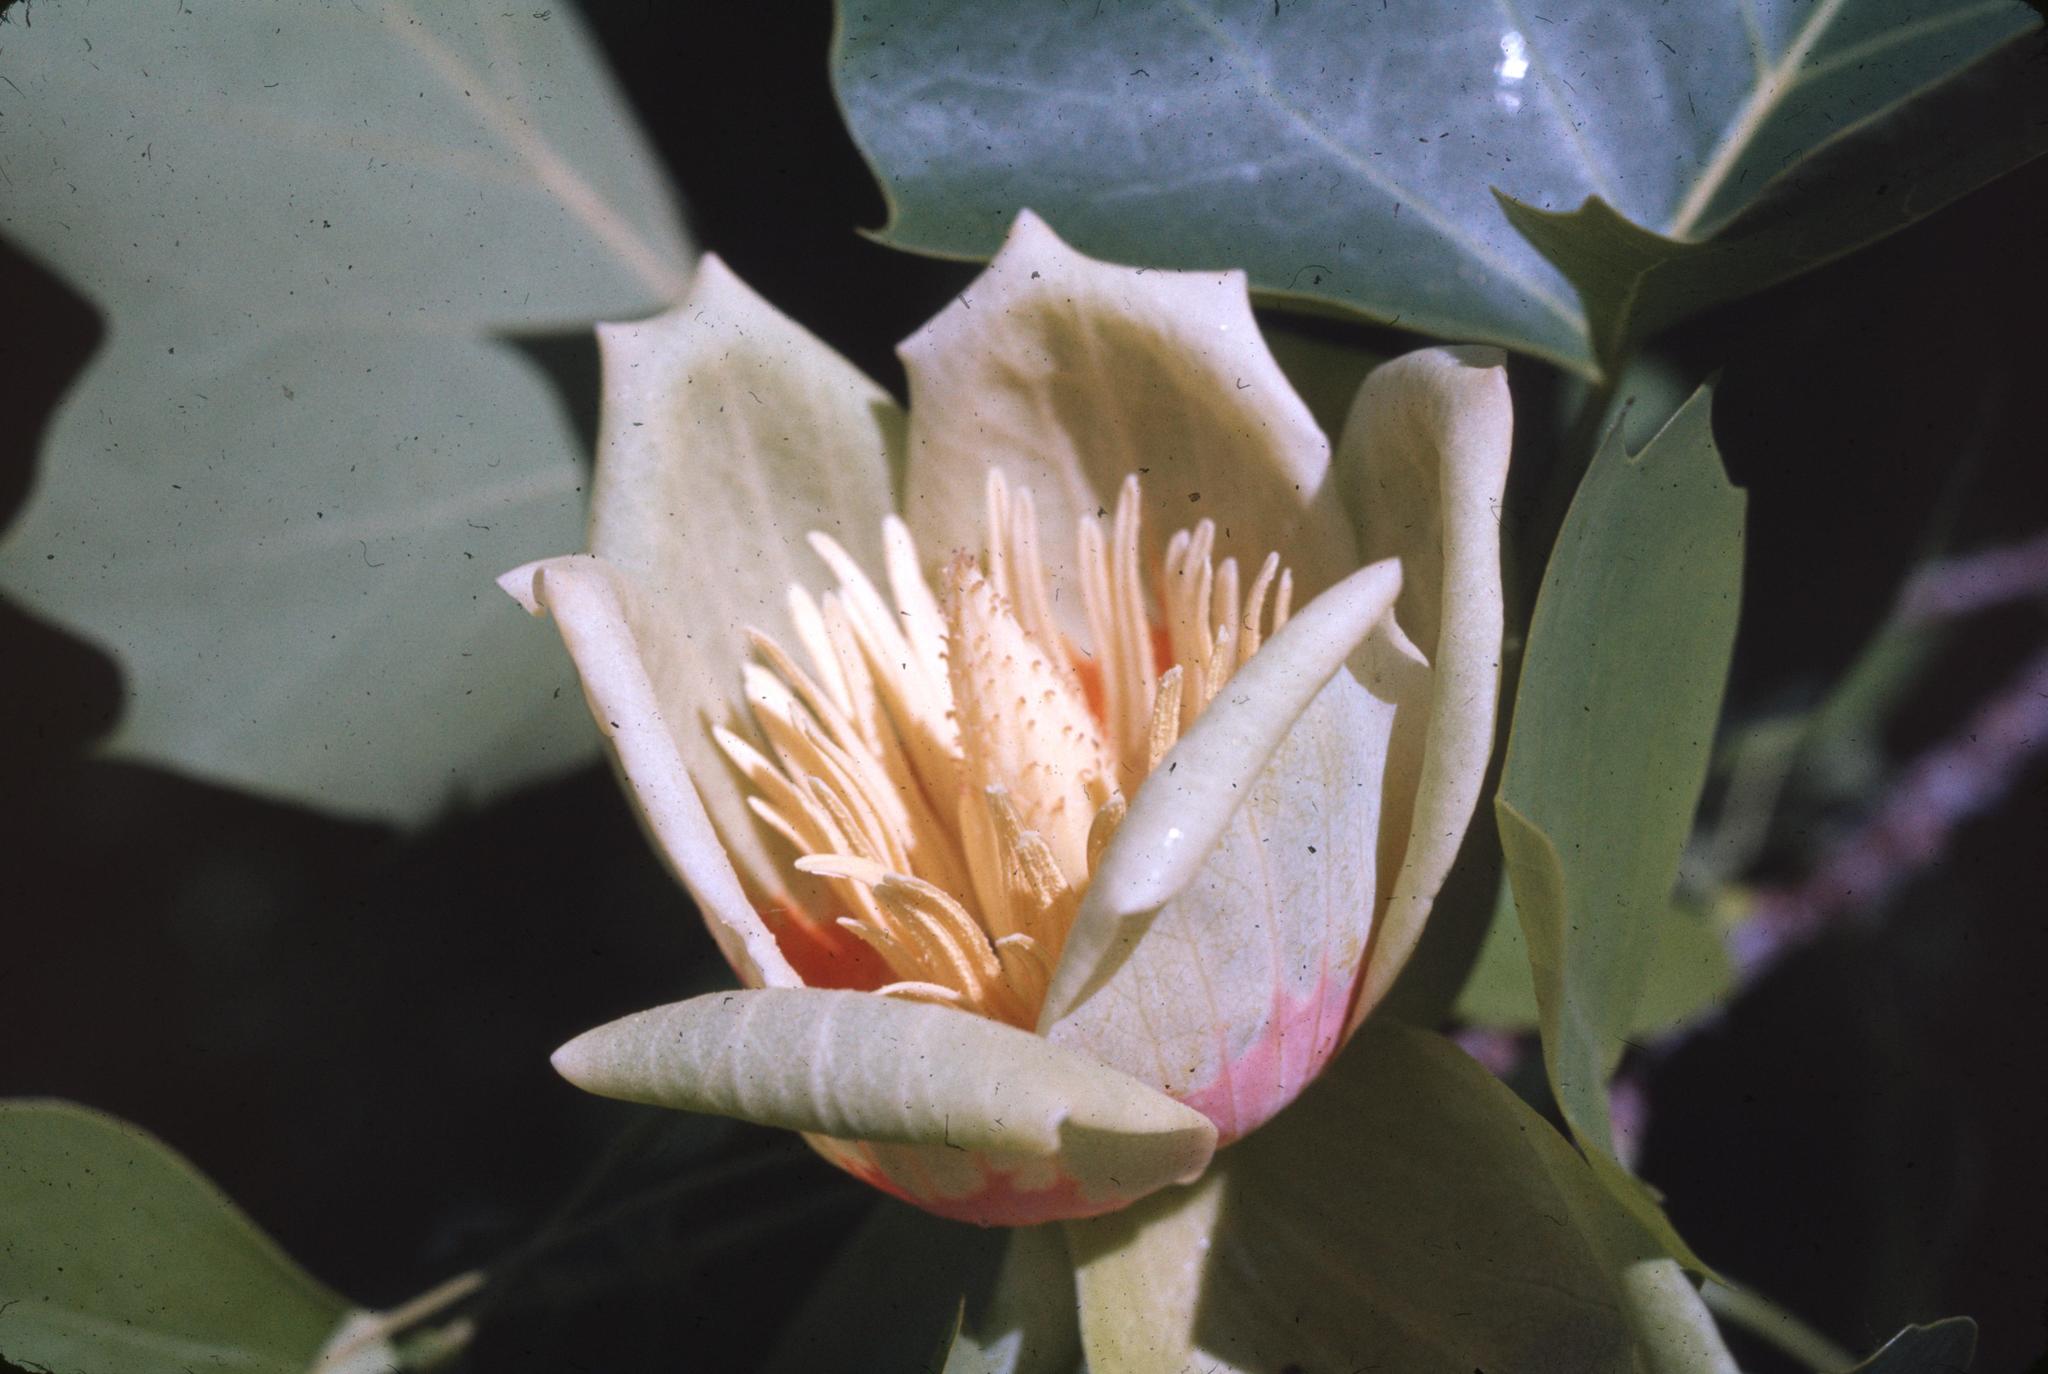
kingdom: Plantae
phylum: Tracheophyta
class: Magnoliopsida
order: Magnoliales
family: Magnoliaceae
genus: Liriodendron
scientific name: Liriodendron tulipifera
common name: Tulip tree
